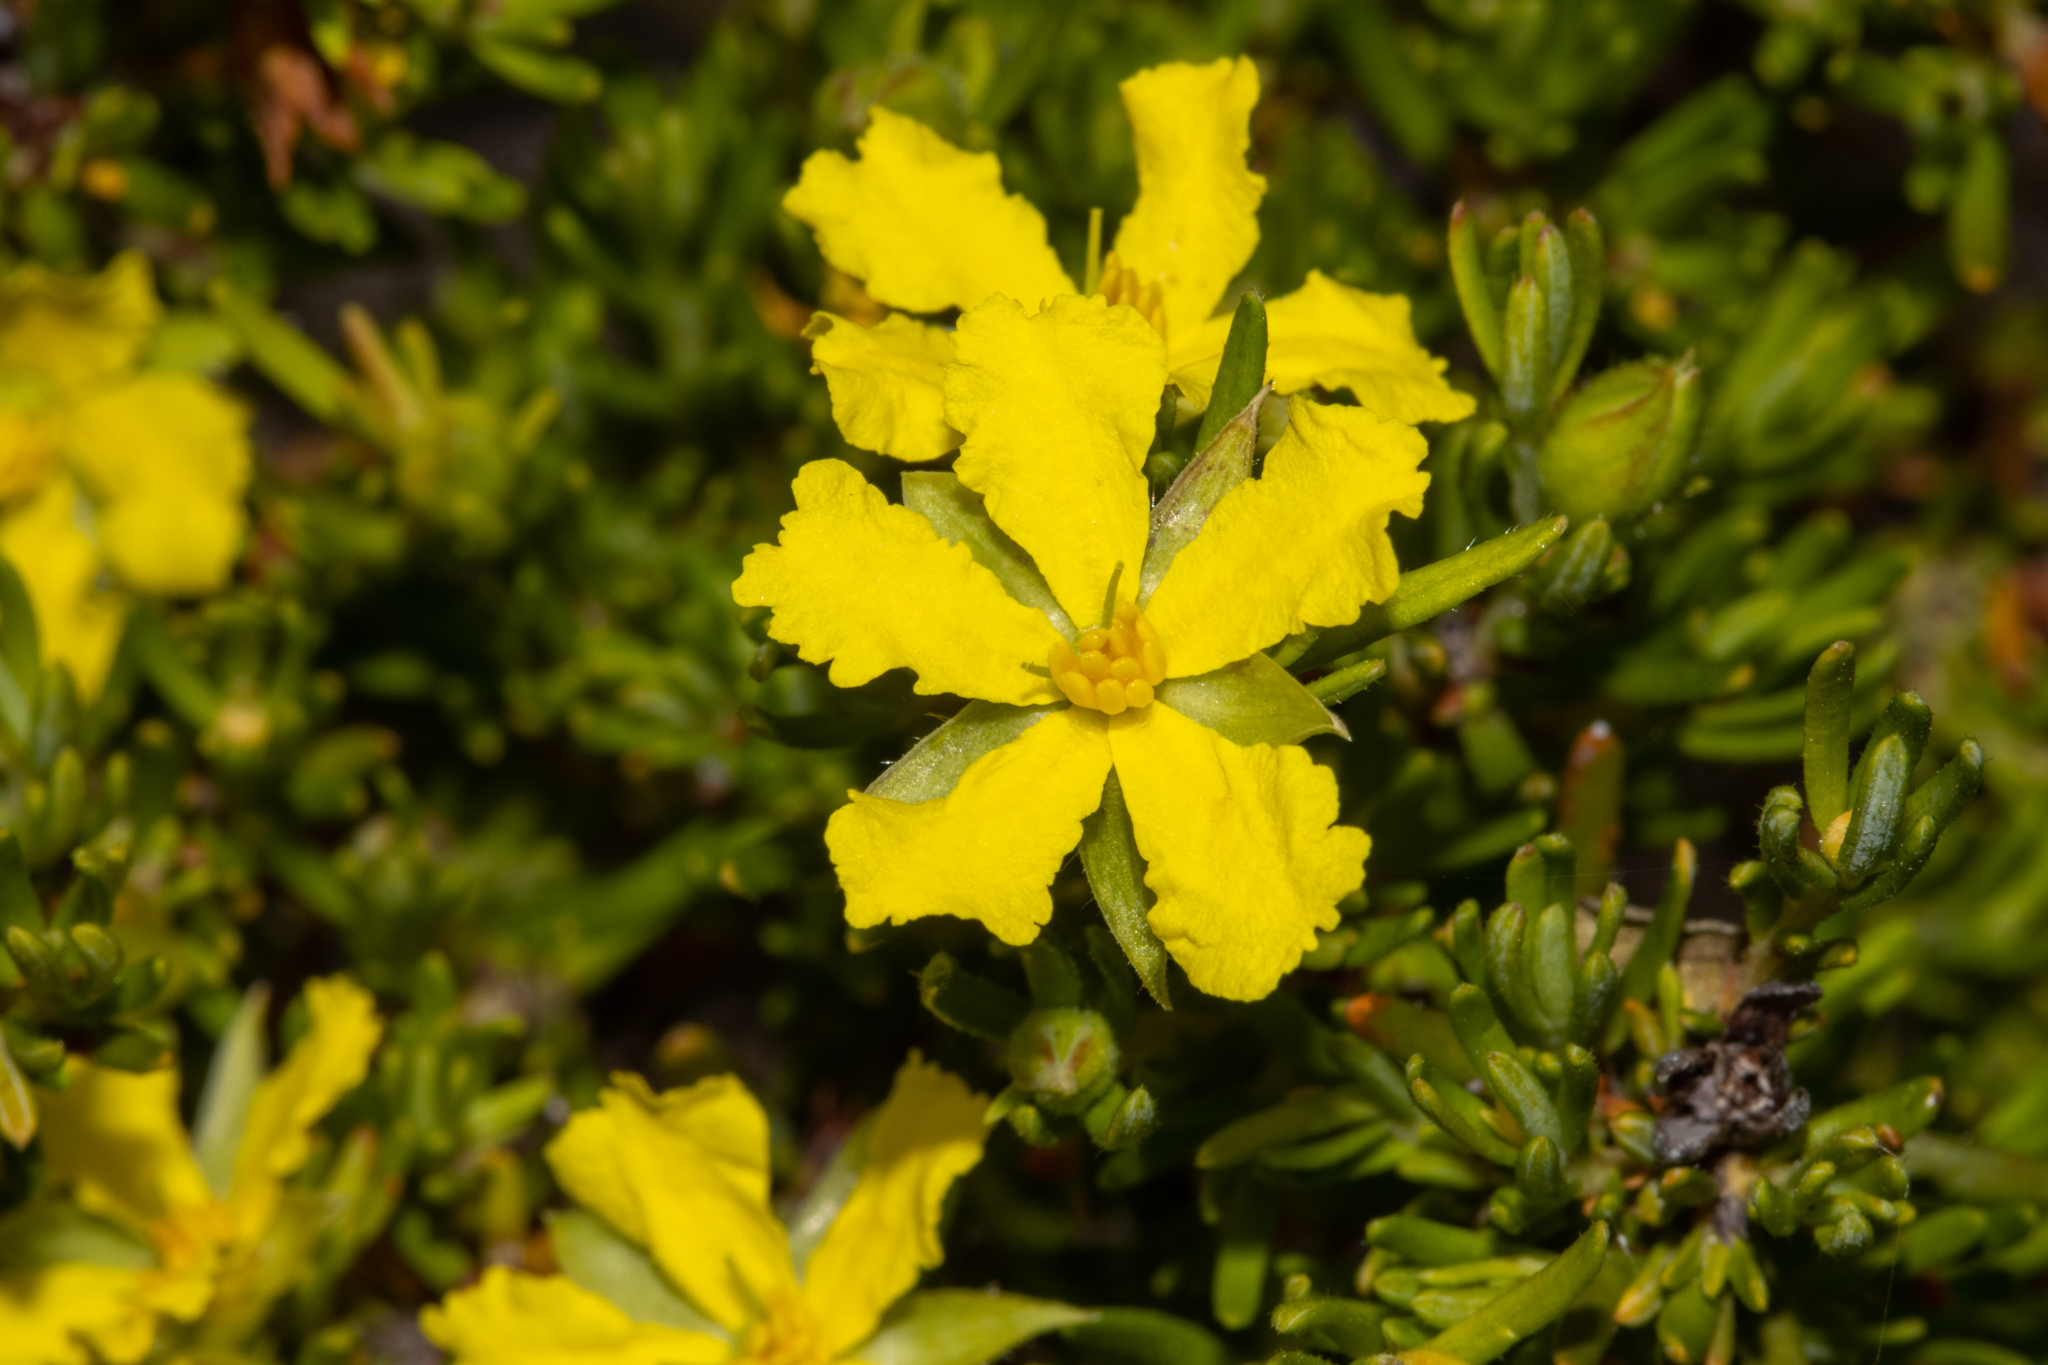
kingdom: Plantae
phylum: Tracheophyta
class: Magnoliopsida
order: Dilleniales
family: Dilleniaceae
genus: Hibbertia
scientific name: Hibbertia riparia
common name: Erect guinea-flower
